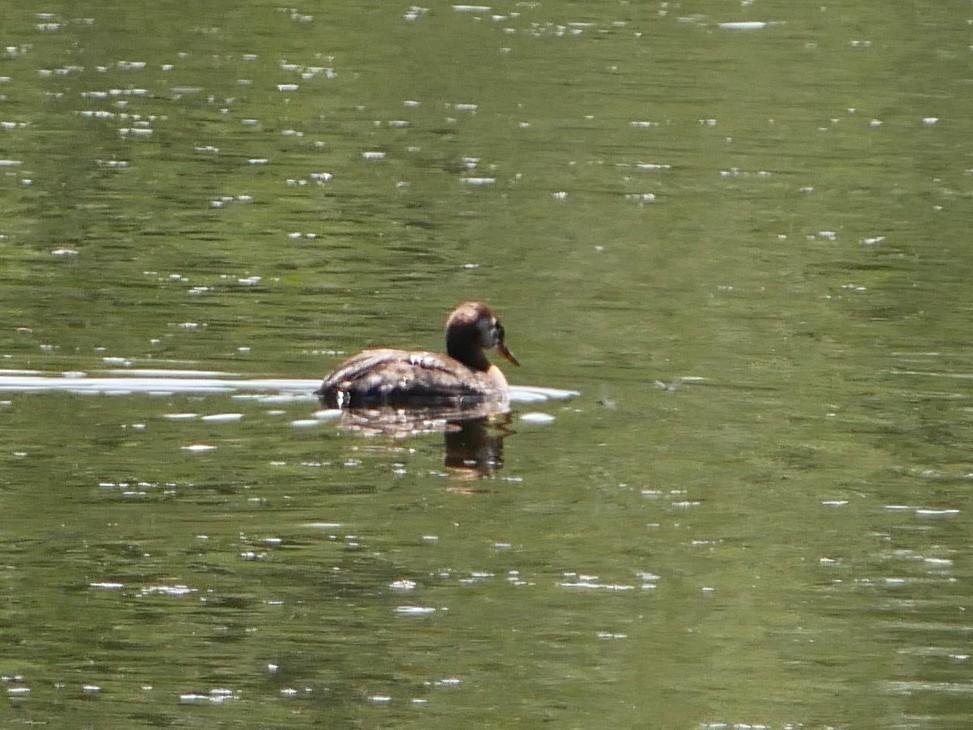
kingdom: Animalia
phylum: Chordata
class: Aves
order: Podicipediformes
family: Podicipedidae
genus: Podiceps
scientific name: Podiceps grisegena
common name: Red-necked grebe
